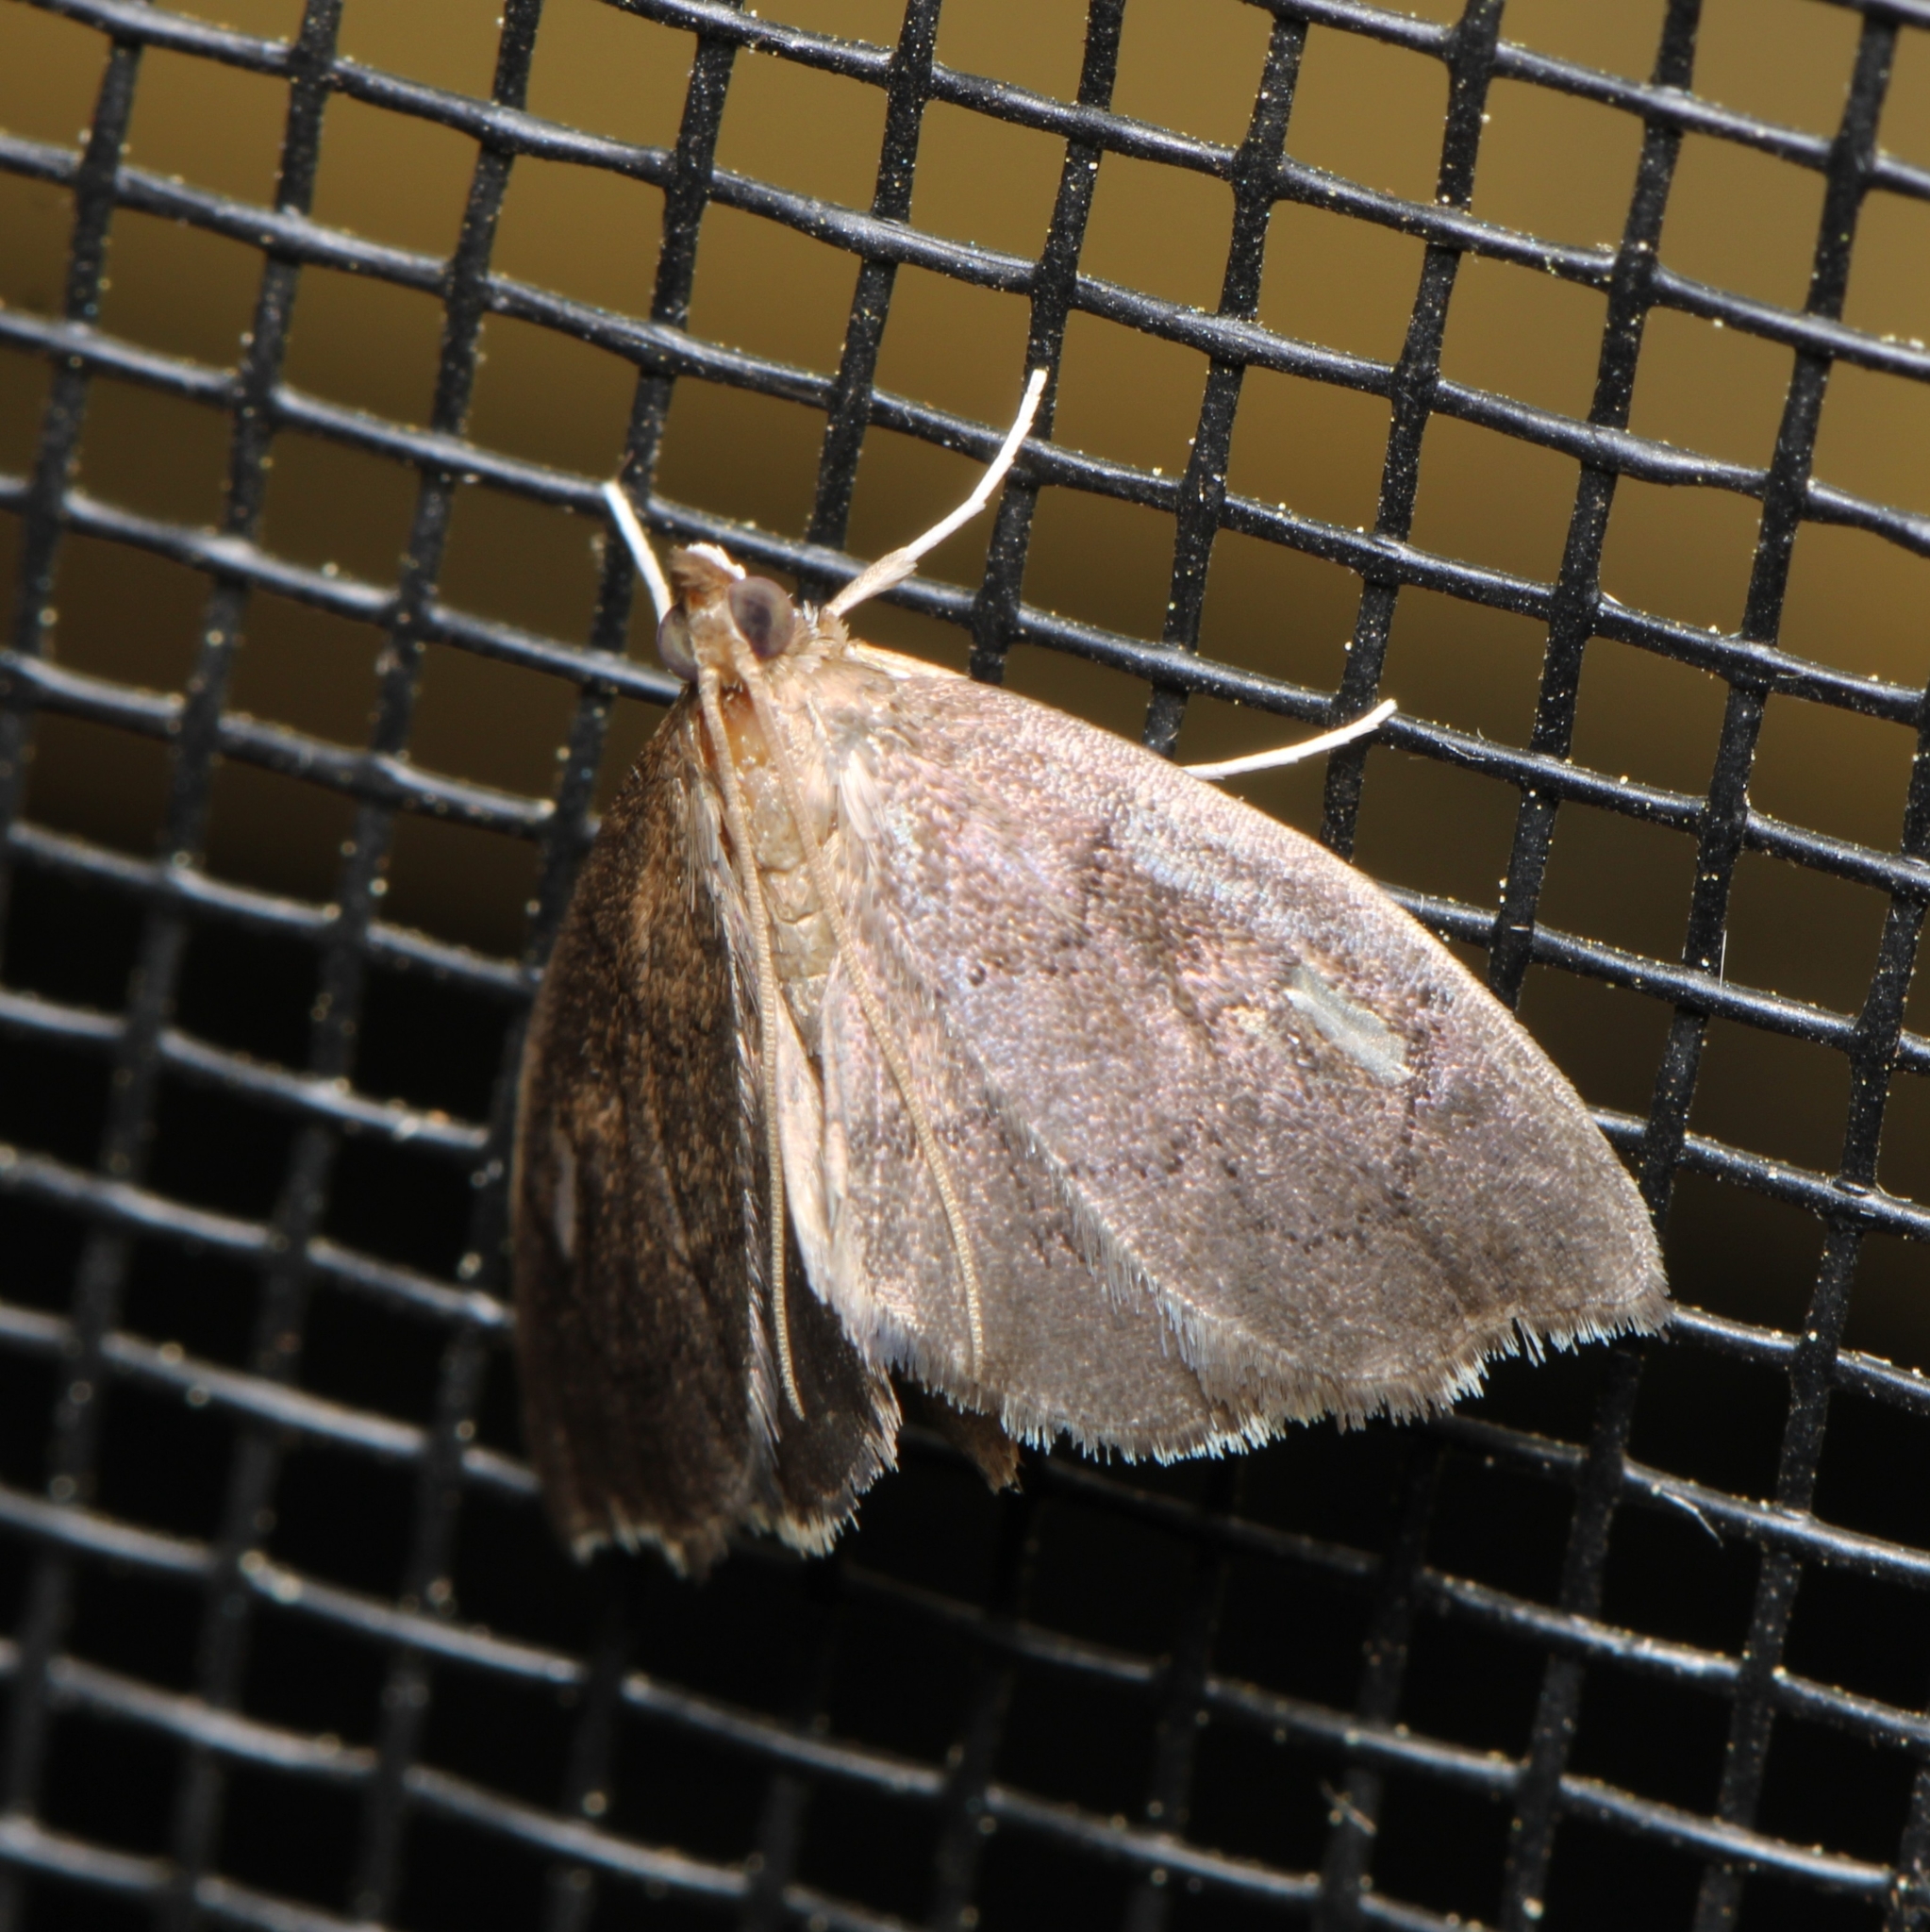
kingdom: Animalia
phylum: Arthropoda
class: Insecta
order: Lepidoptera
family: Crambidae
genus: Perispasta
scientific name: Perispasta caeculalis
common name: Titian peale's moth
